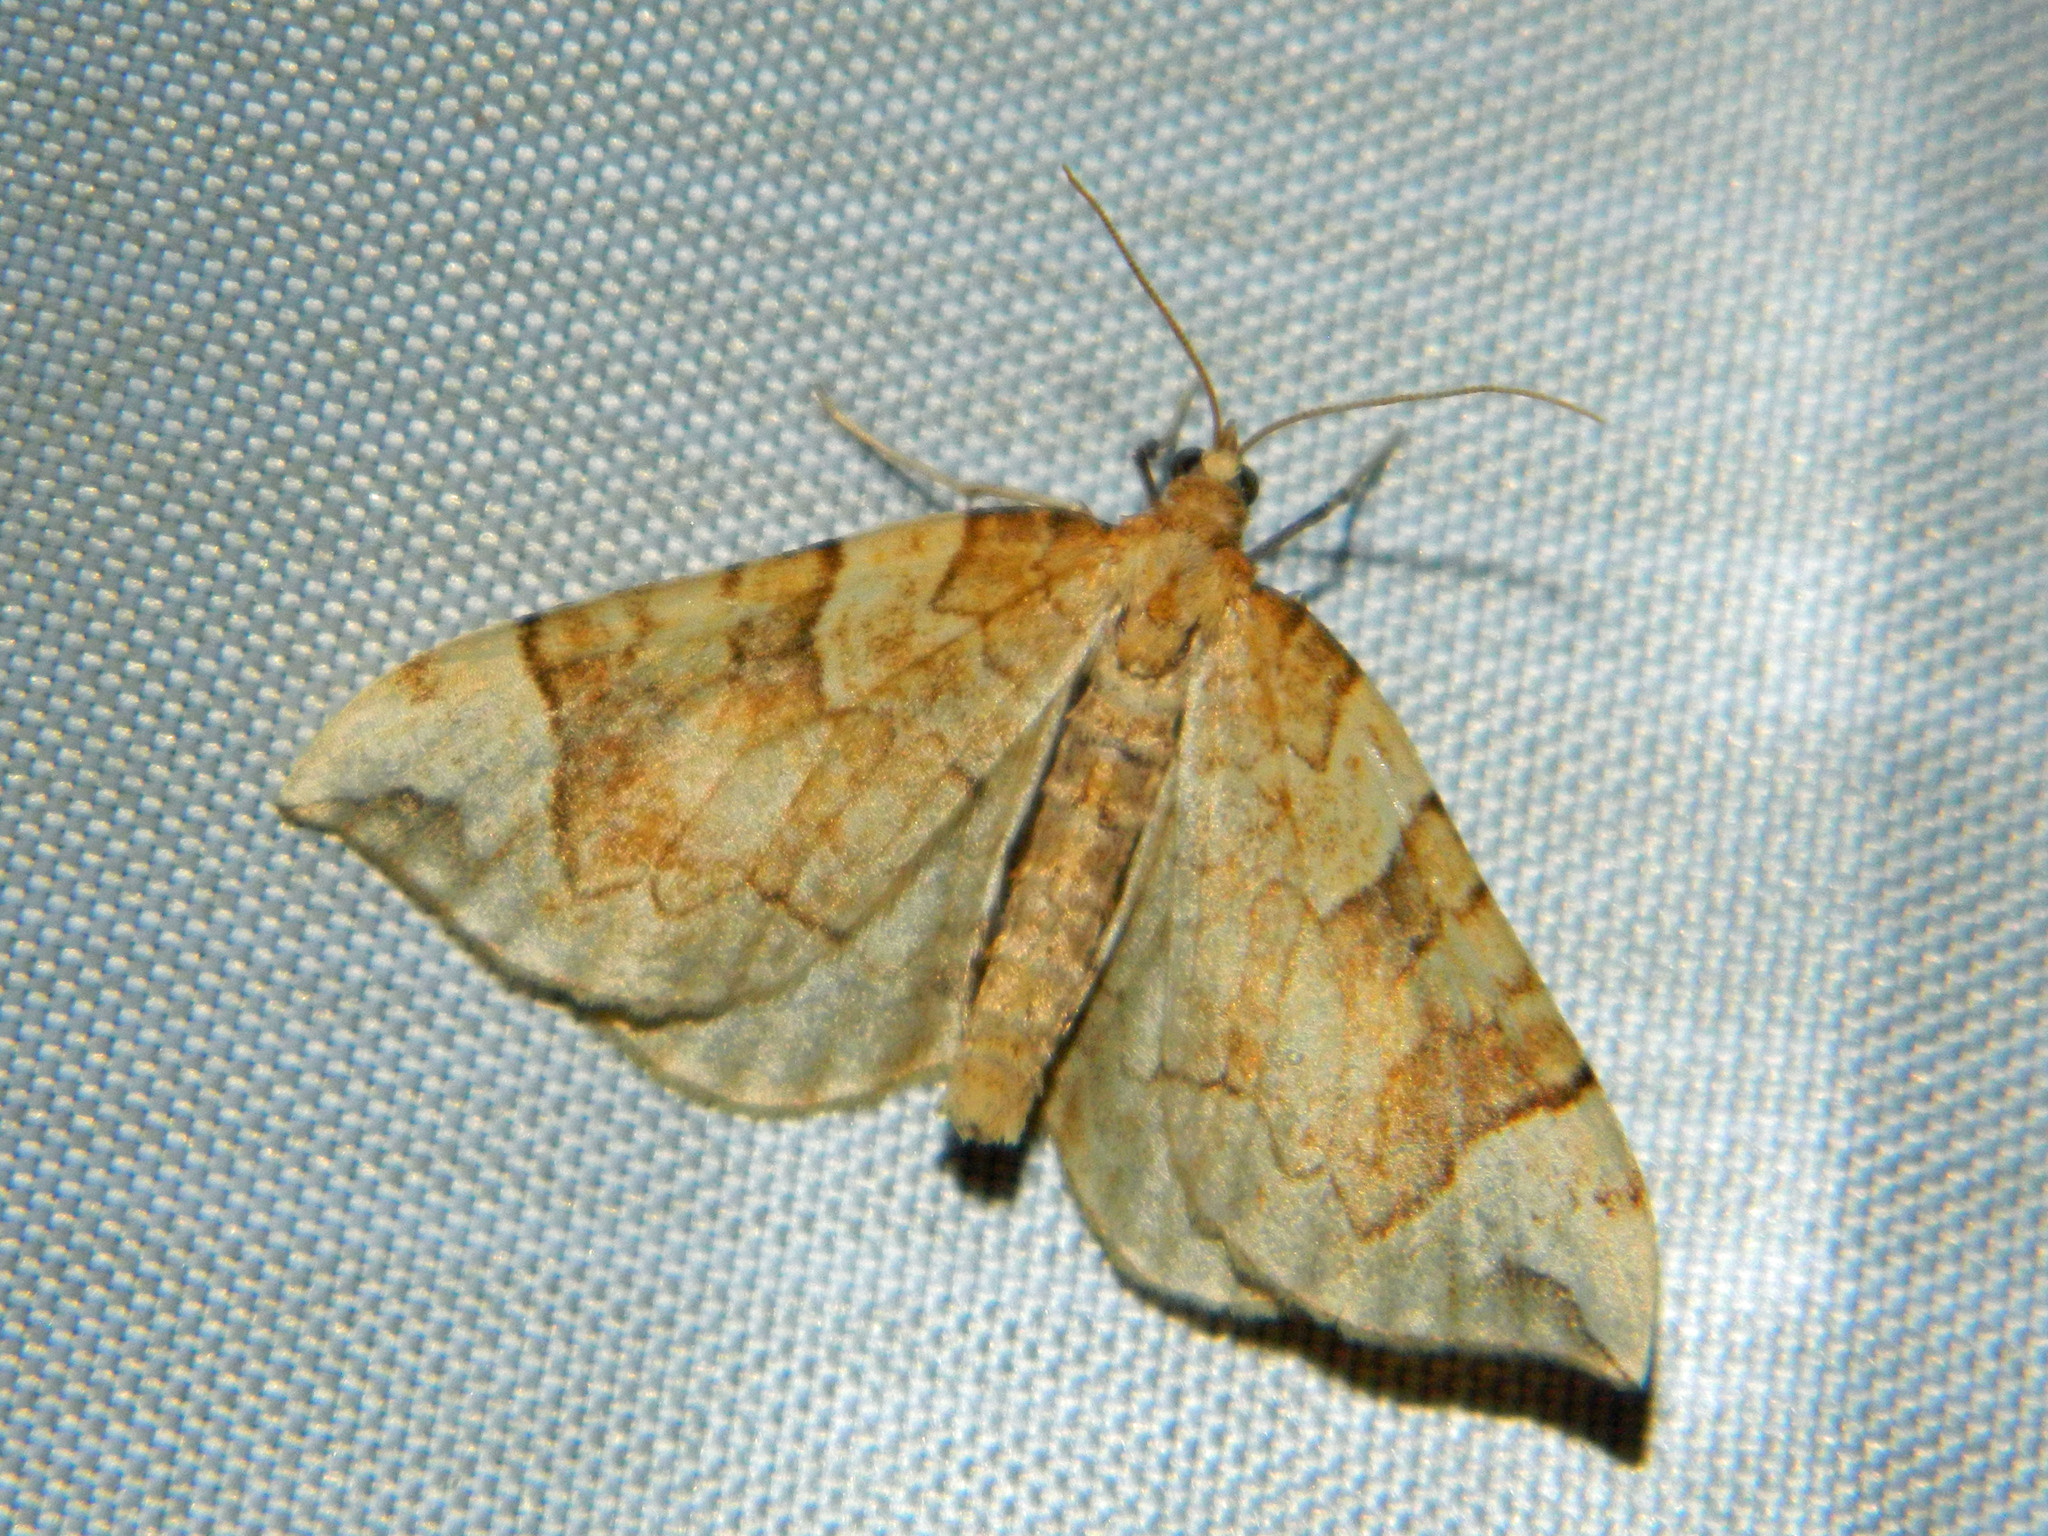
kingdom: Animalia
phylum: Arthropoda
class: Insecta
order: Lepidoptera
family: Geometridae
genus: Eulithis
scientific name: Eulithis propulsata
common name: Currant eulithis moth
